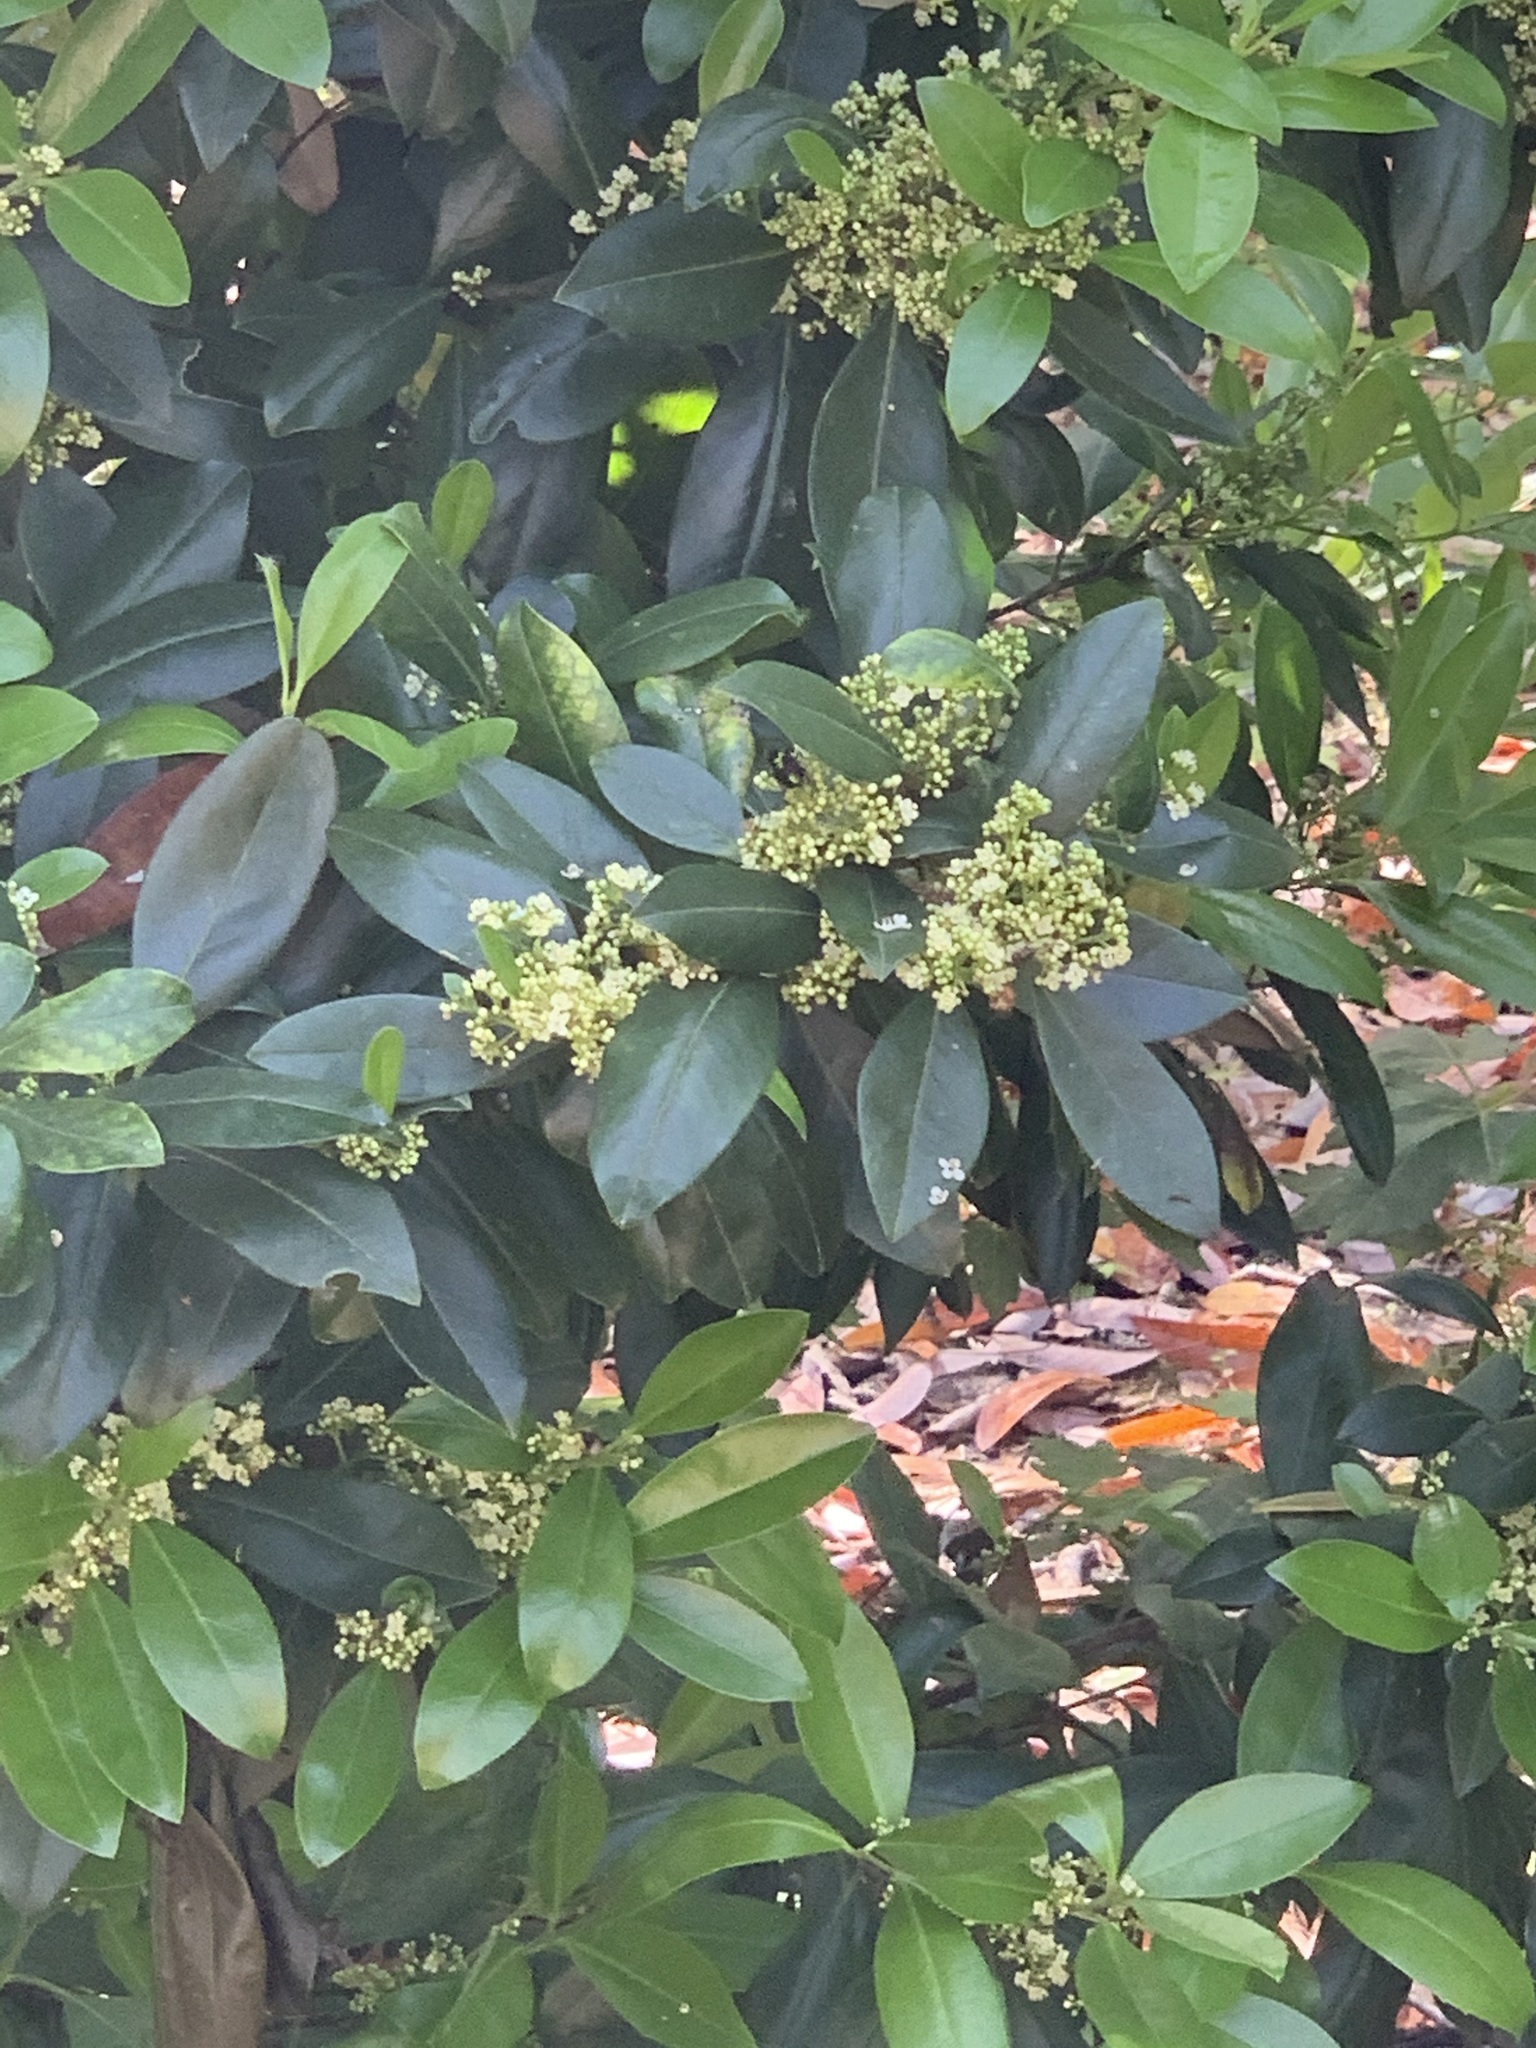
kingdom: Plantae
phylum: Tracheophyta
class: Magnoliopsida
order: Aquifoliales
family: Aquifoliaceae
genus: Ilex
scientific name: Ilex cassine
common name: Dahoon
